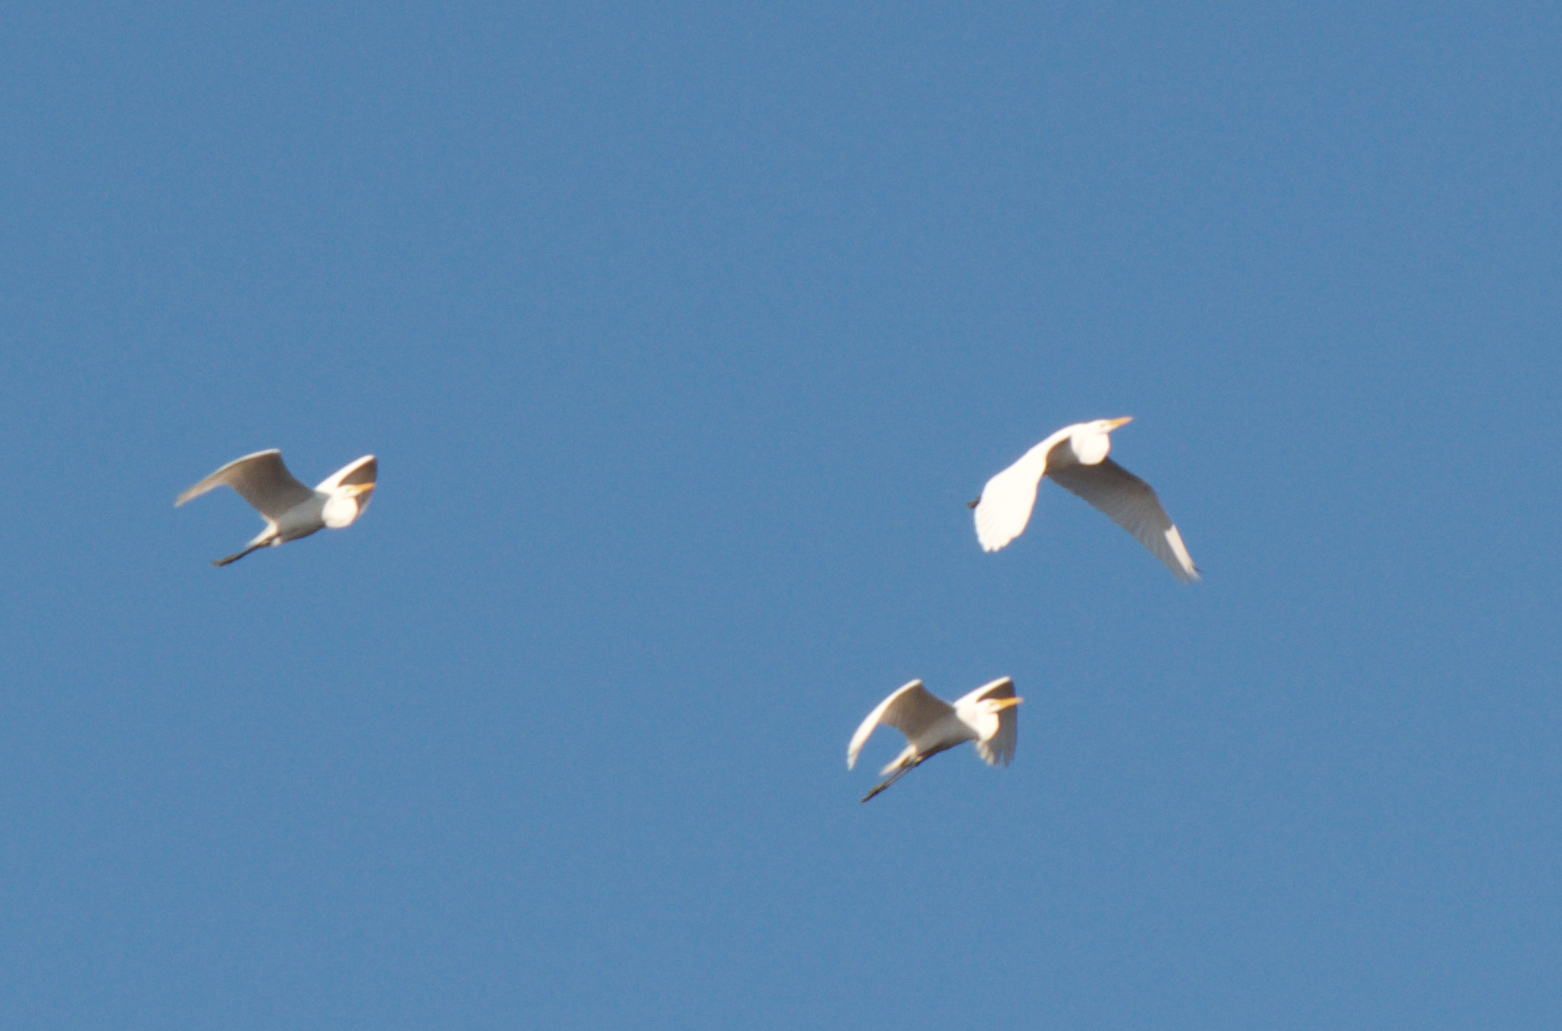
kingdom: Animalia
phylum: Chordata
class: Aves
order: Pelecaniformes
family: Ardeidae
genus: Ardea
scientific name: Ardea alba
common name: Great egret
